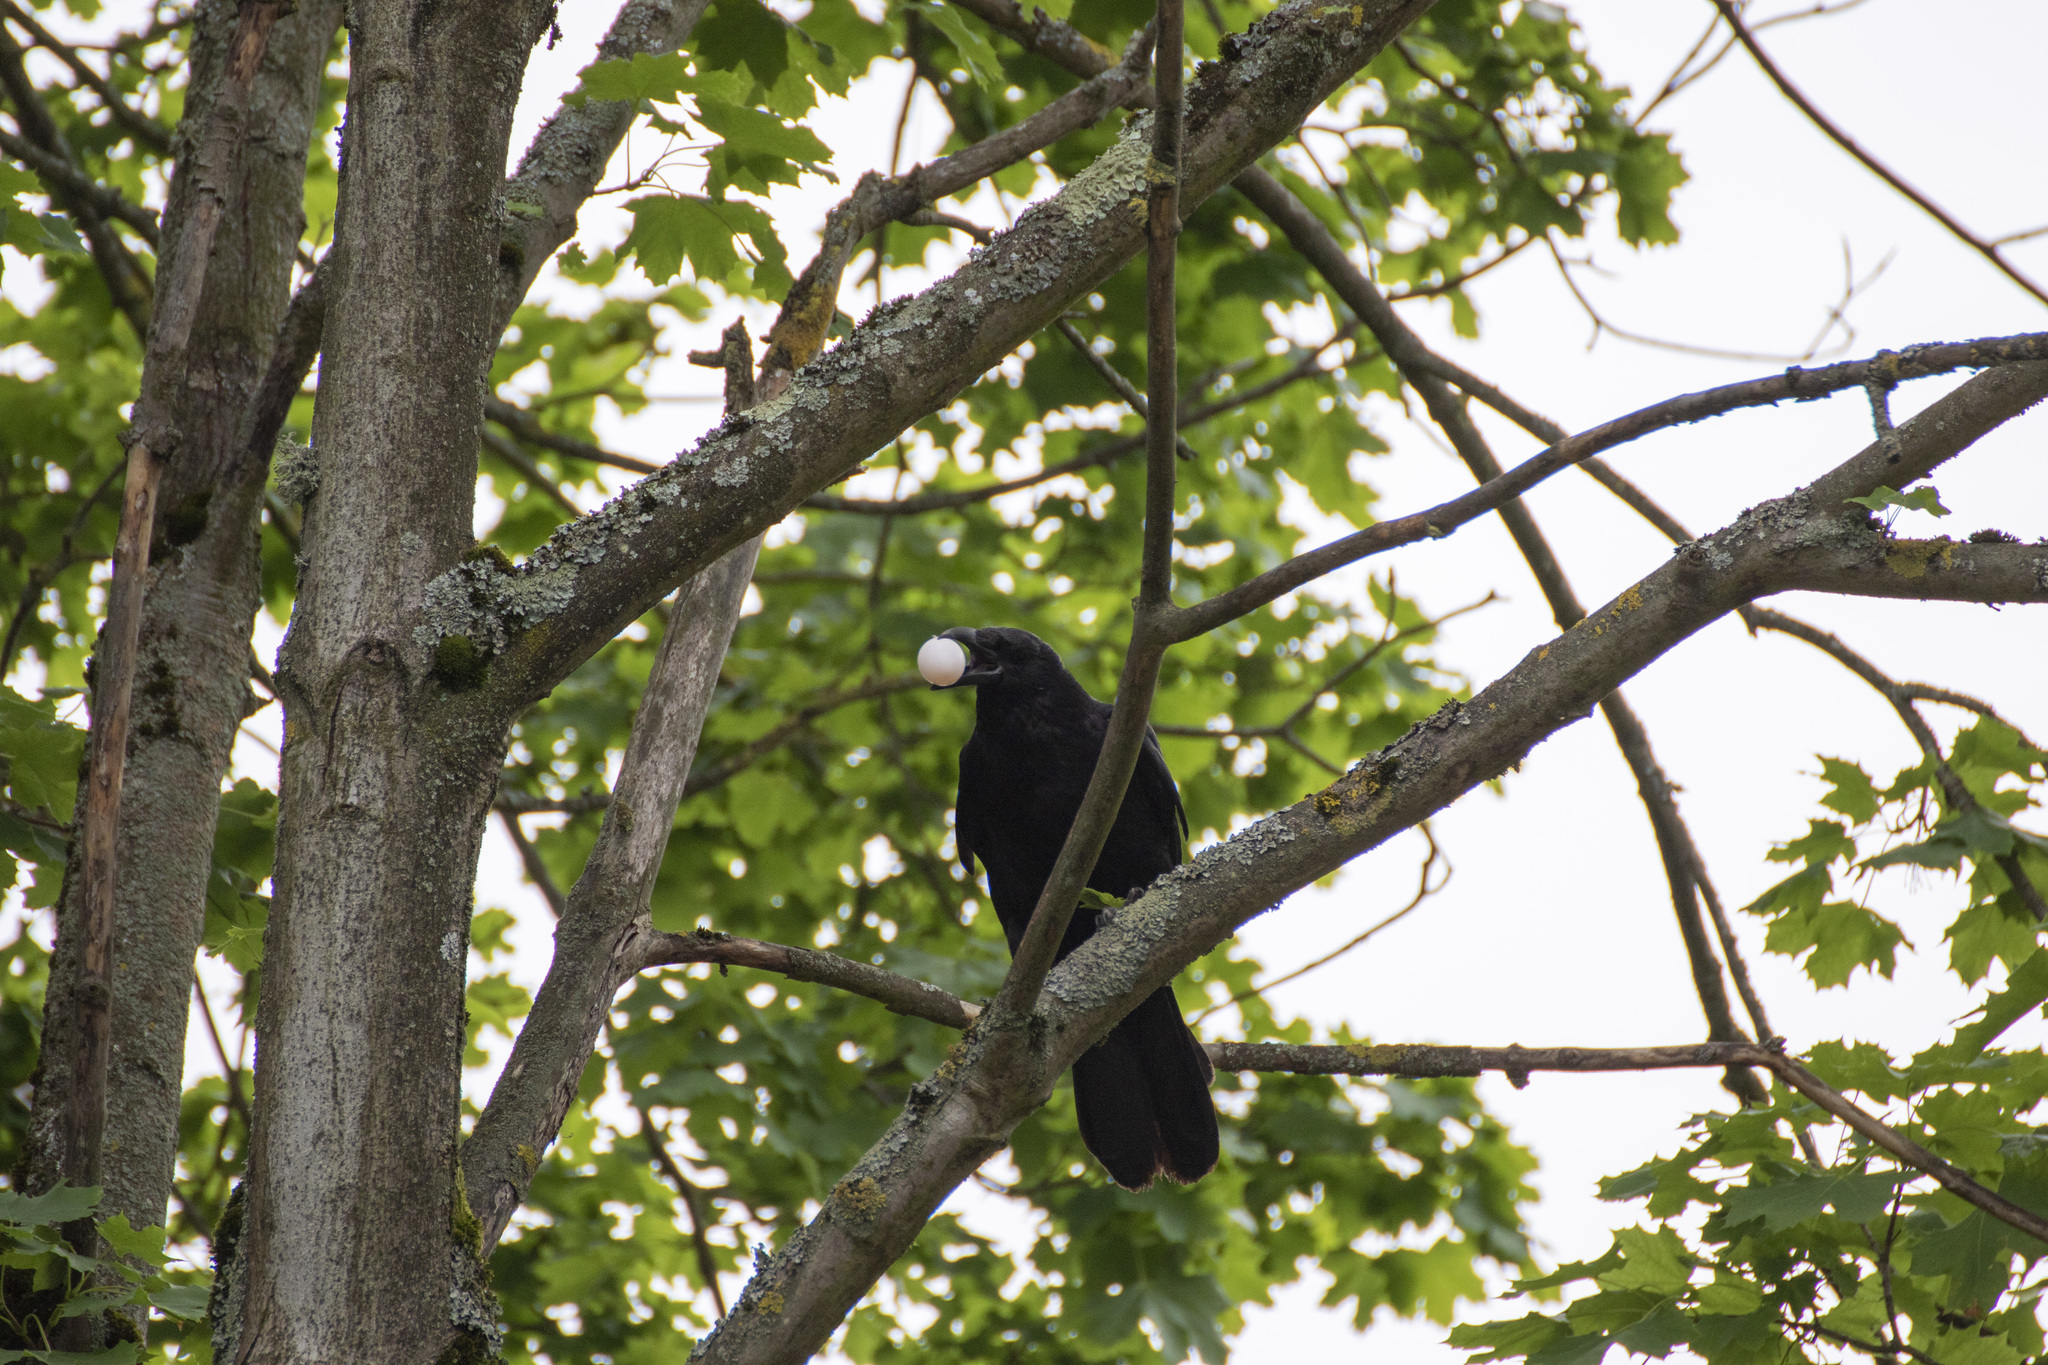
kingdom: Animalia
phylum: Chordata
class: Aves
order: Passeriformes
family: Corvidae
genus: Corvus
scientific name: Corvus corone
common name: Carrion crow
